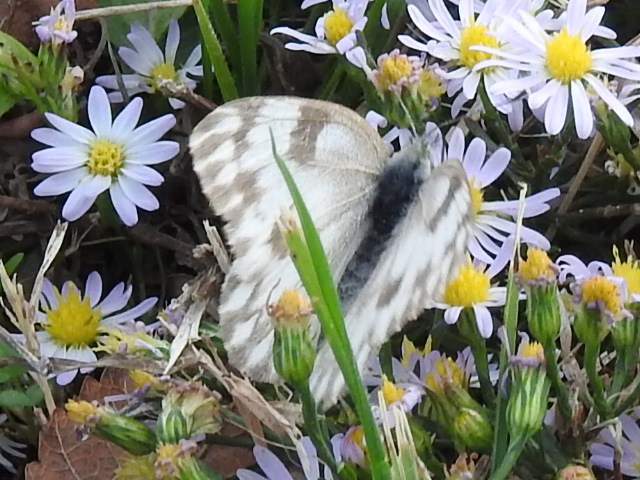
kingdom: Animalia
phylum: Arthropoda
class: Insecta
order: Lepidoptera
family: Pieridae
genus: Pontia
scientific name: Pontia protodice
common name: Checkered white
